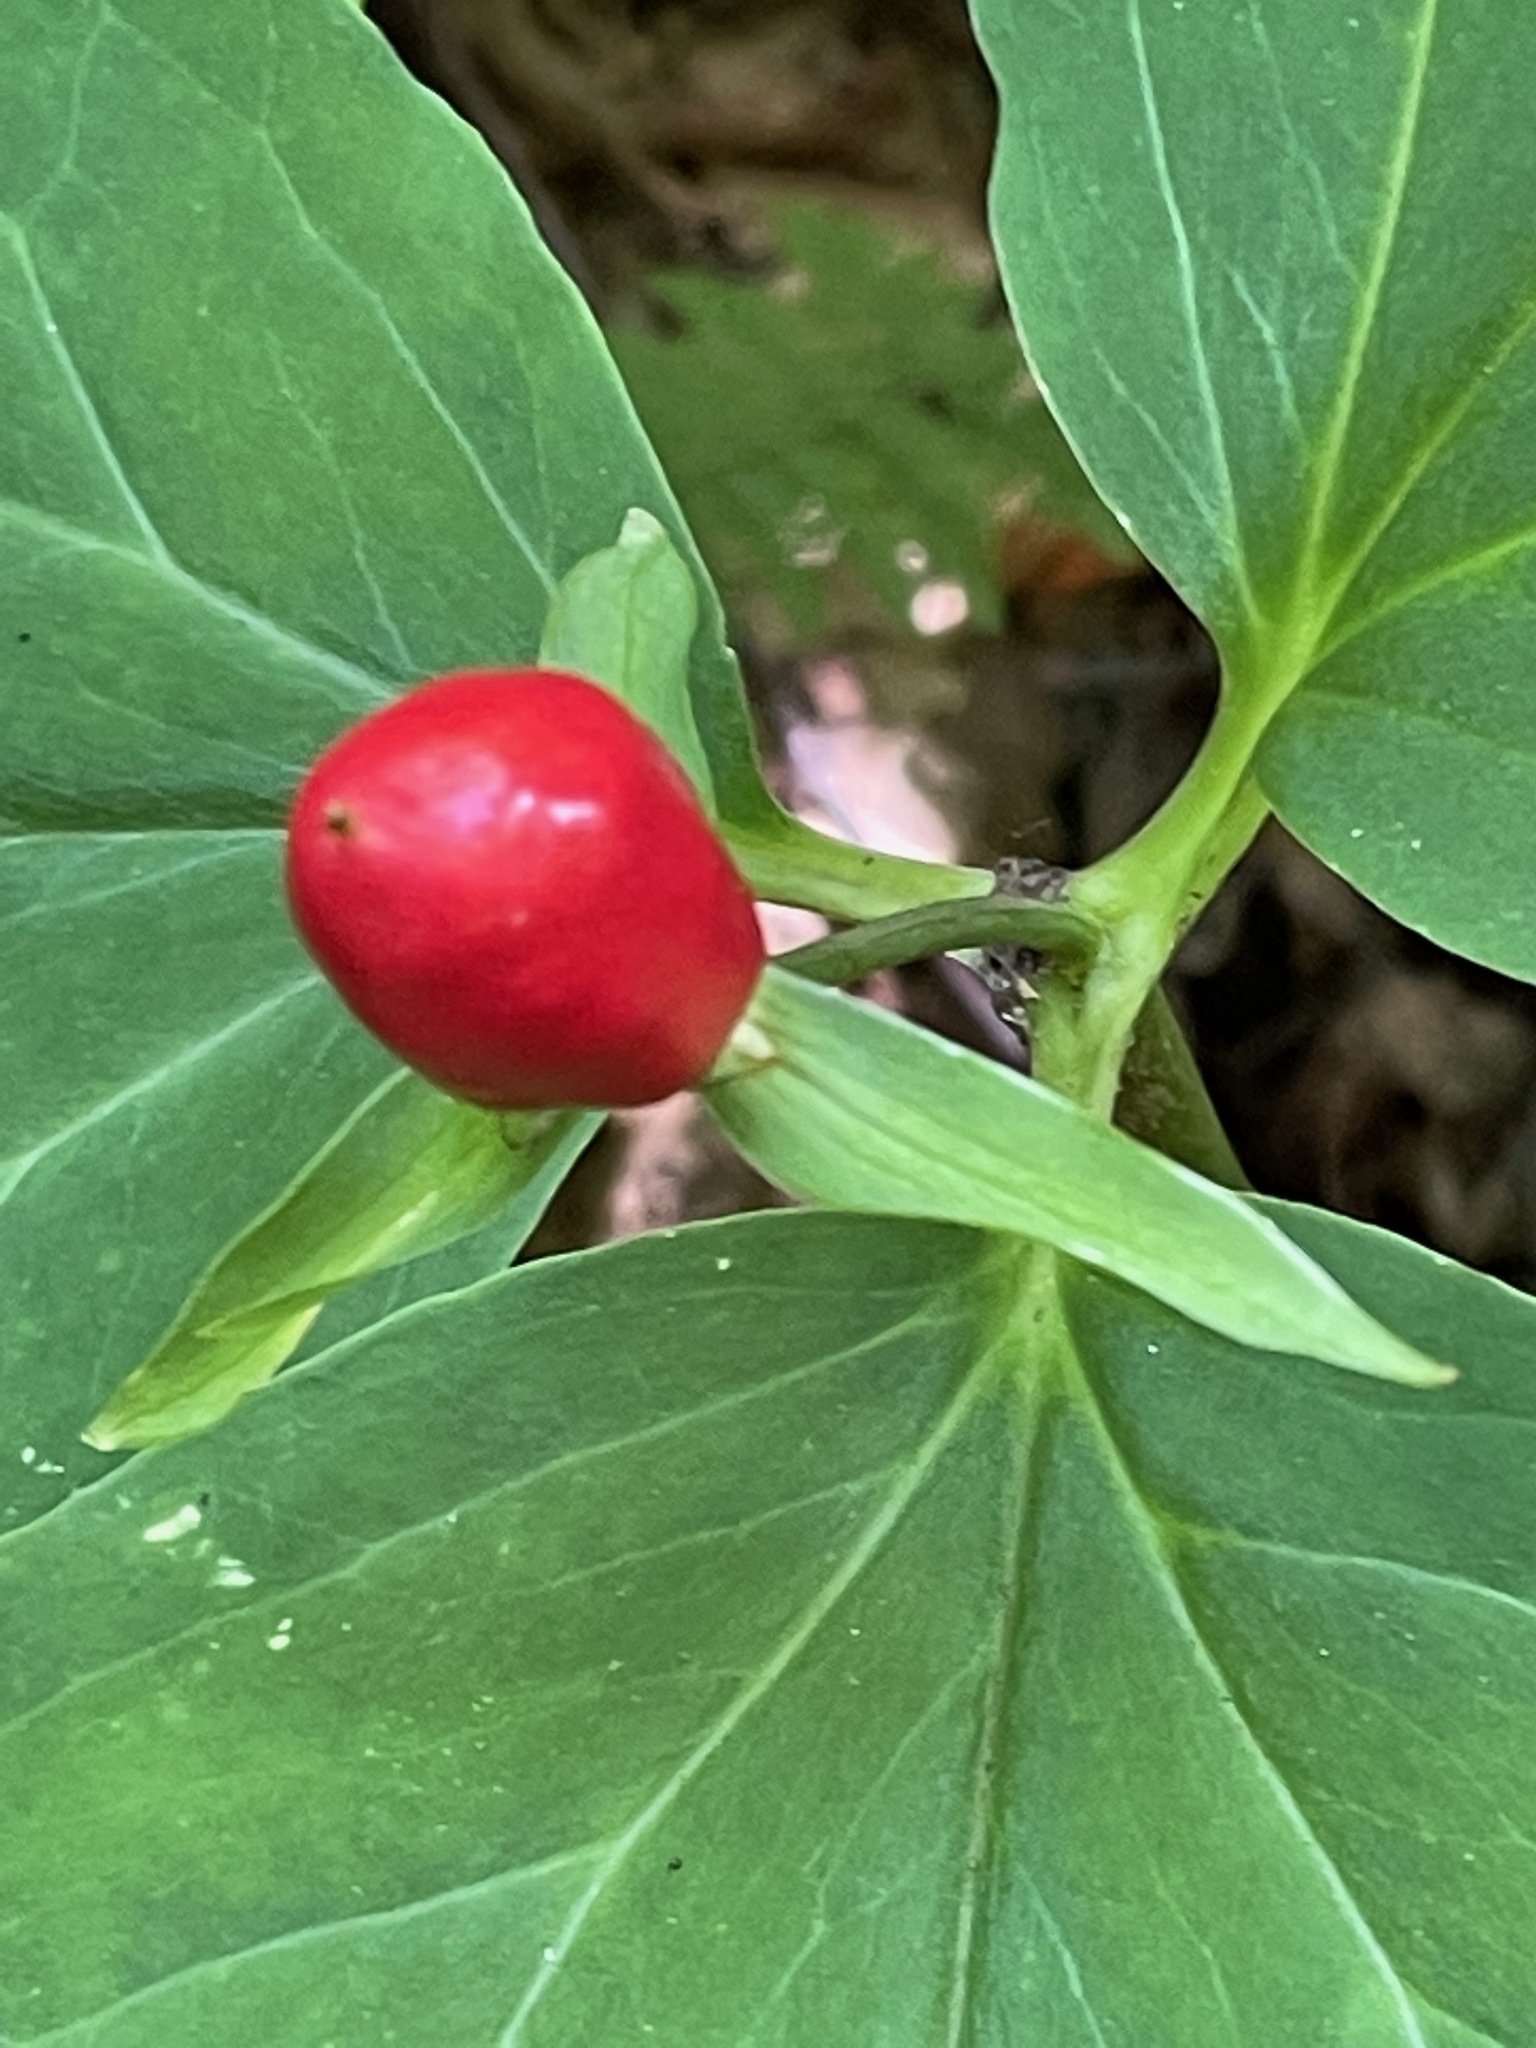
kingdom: Plantae
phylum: Tracheophyta
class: Liliopsida
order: Liliales
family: Melanthiaceae
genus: Trillium
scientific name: Trillium undulatum
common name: Paint trillium
